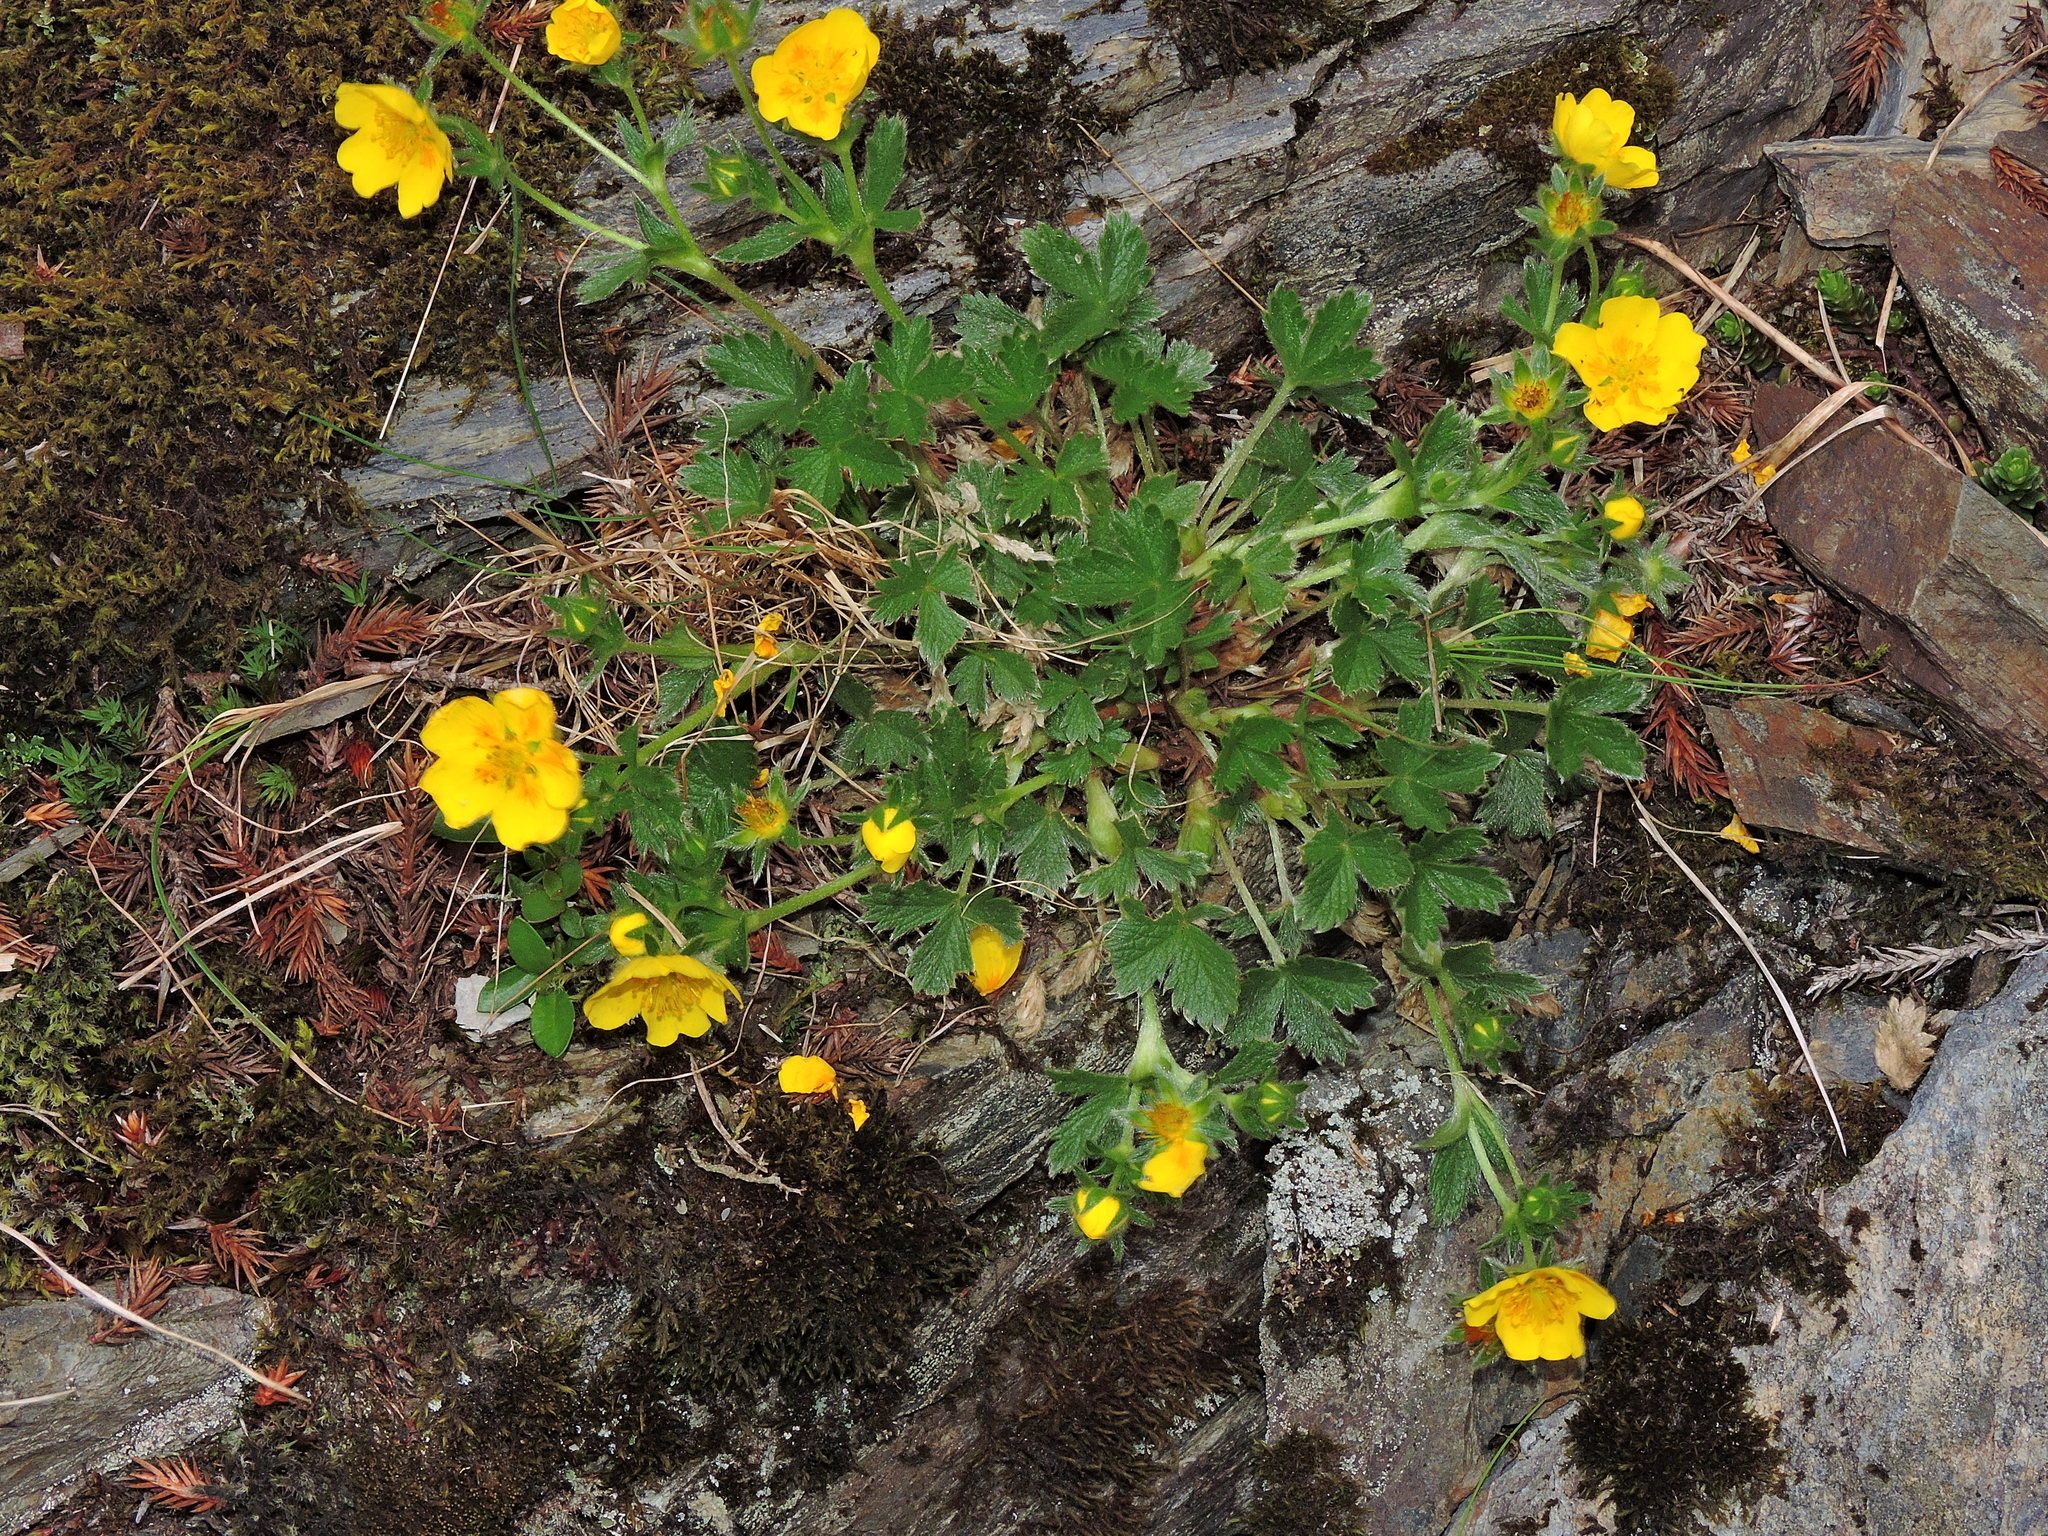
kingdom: Plantae
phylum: Tracheophyta
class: Magnoliopsida
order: Rosales
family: Rosaceae
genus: Potentilla
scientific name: Potentilla matsumurae
